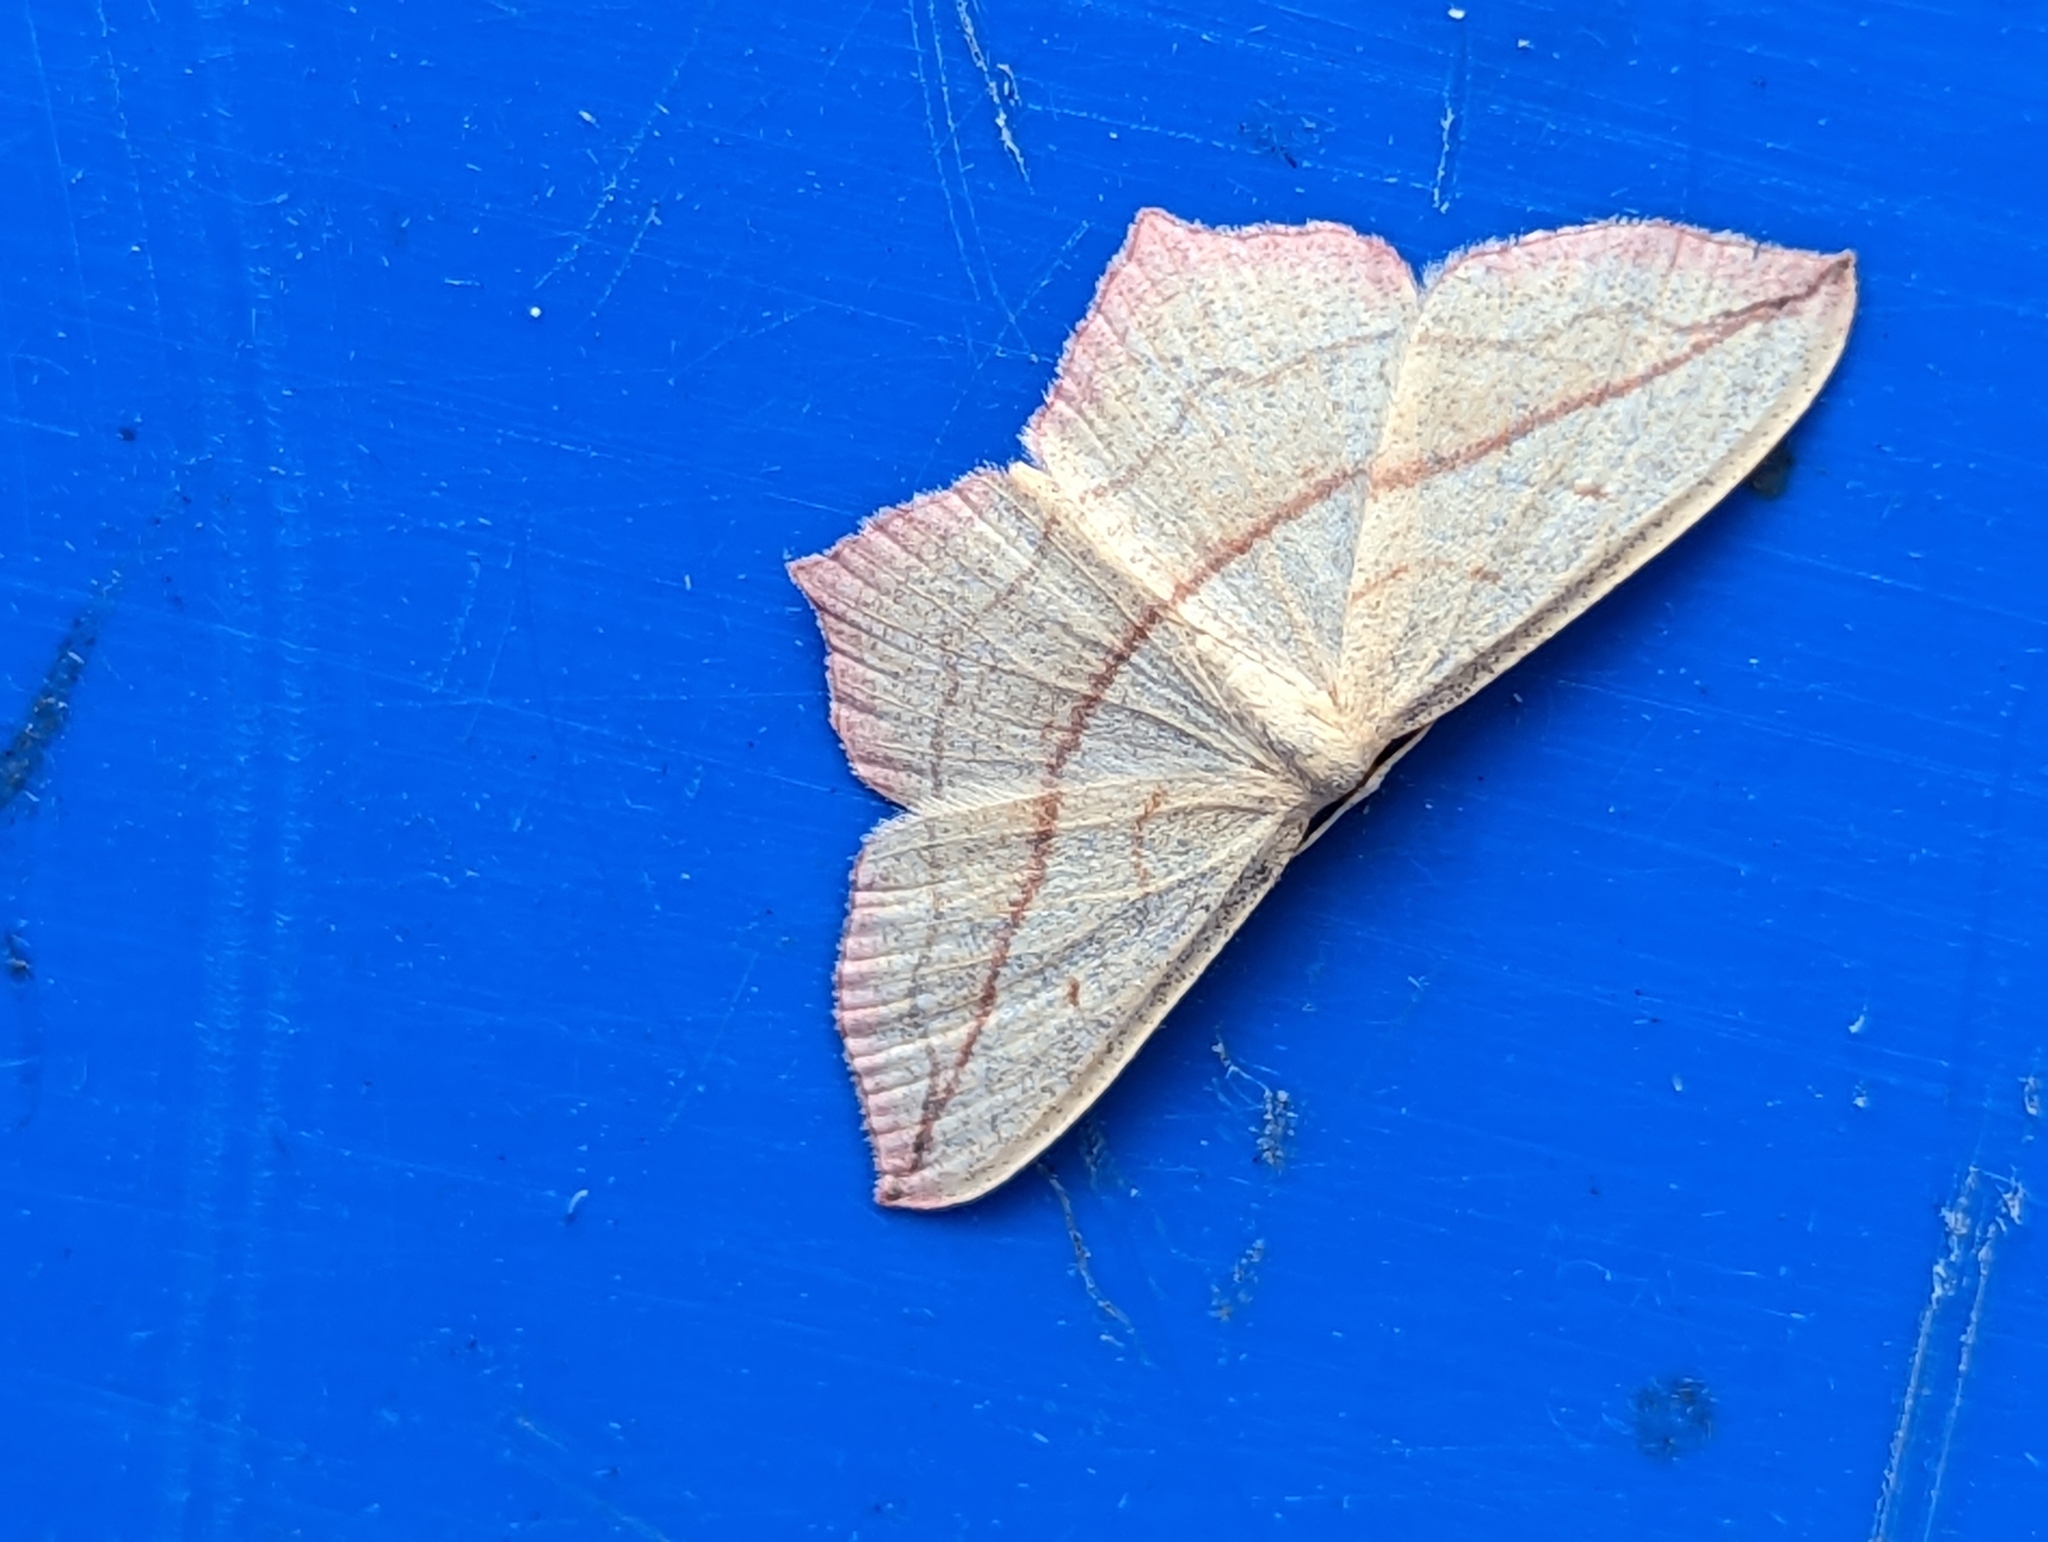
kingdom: Animalia
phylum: Arthropoda
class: Insecta
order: Lepidoptera
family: Geometridae
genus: Timandra
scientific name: Timandra comae
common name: Blood-vein
